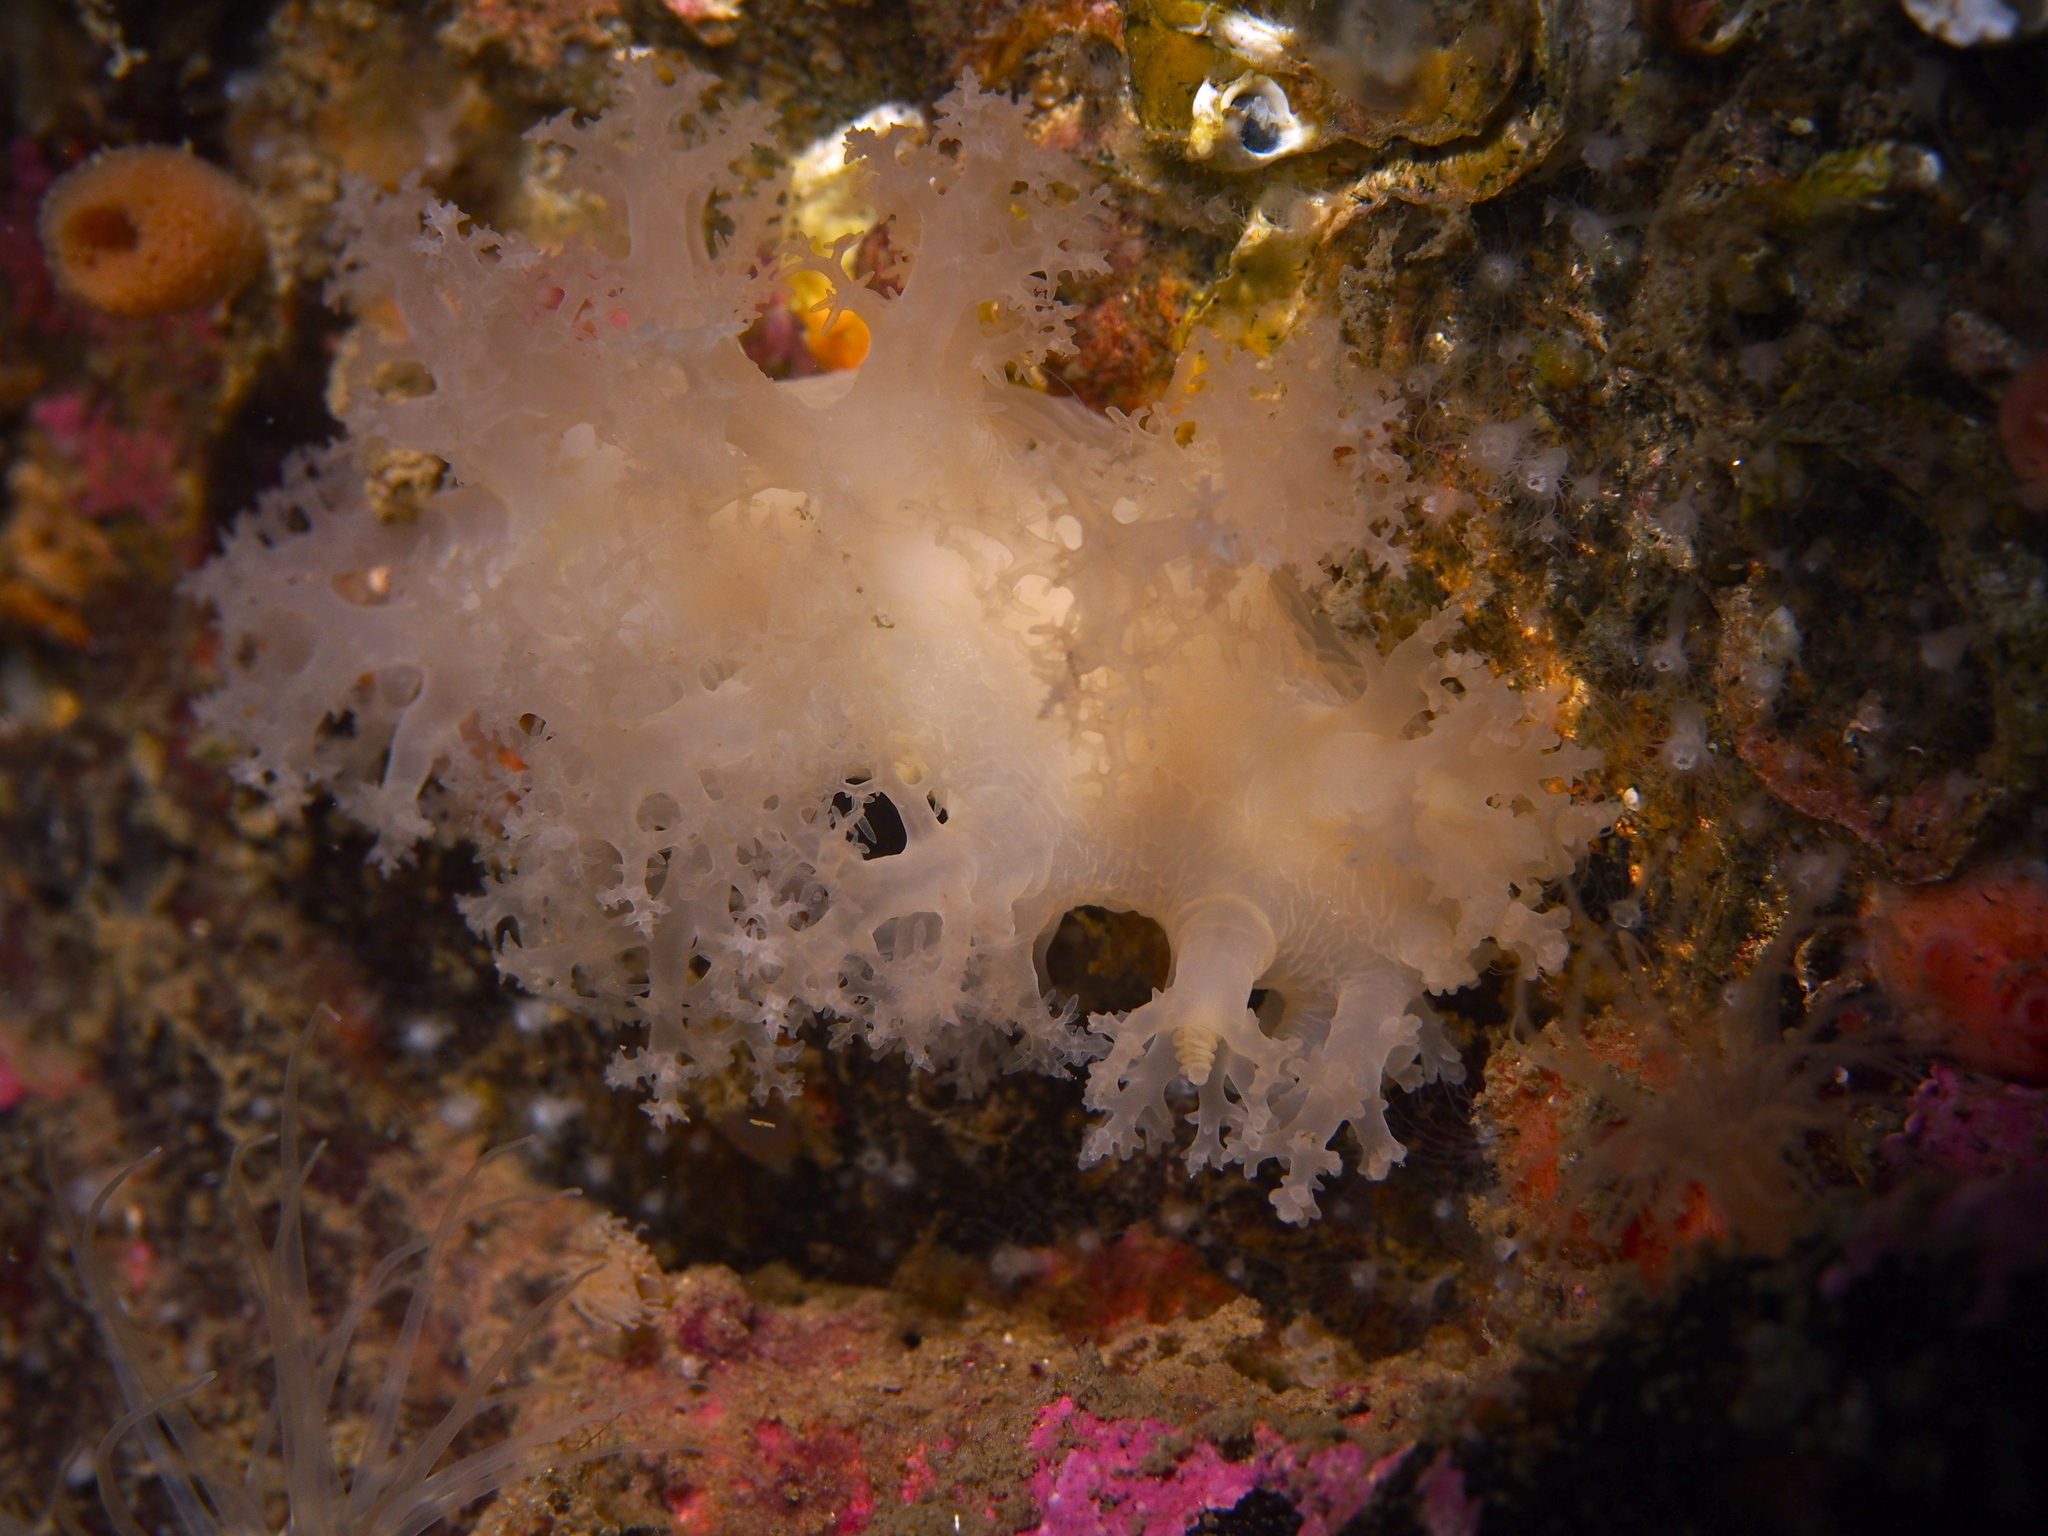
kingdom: Animalia
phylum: Mollusca
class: Gastropoda
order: Nudibranchia
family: Dendronotidae
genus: Dendronotus
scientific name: Dendronotus lacteus
